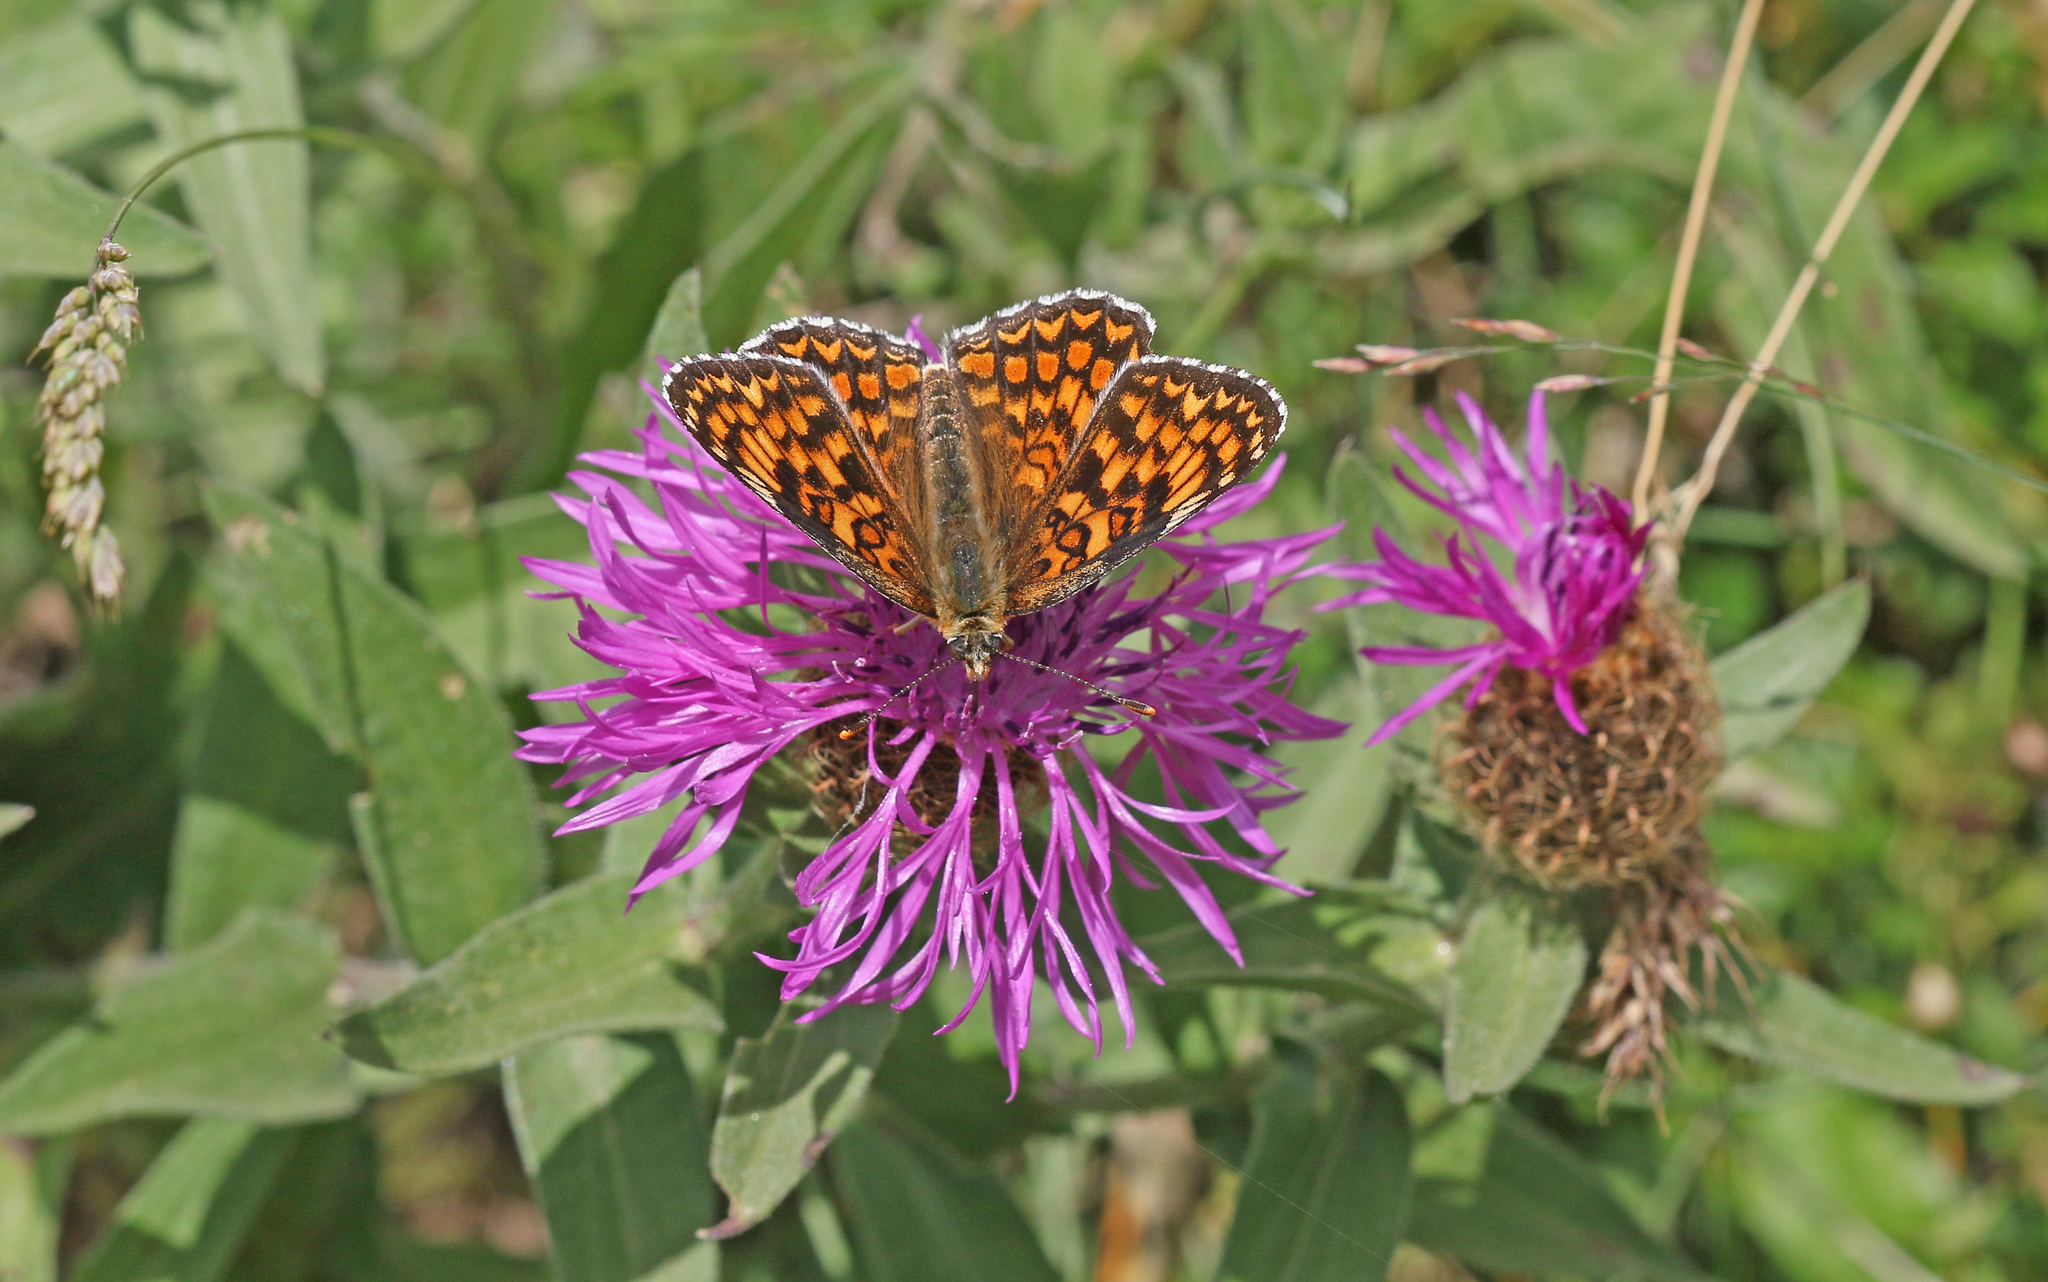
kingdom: Animalia
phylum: Arthropoda
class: Insecta
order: Lepidoptera
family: Nymphalidae
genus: Melitaea
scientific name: Melitaea phoebe
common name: Knapweed fritillary
